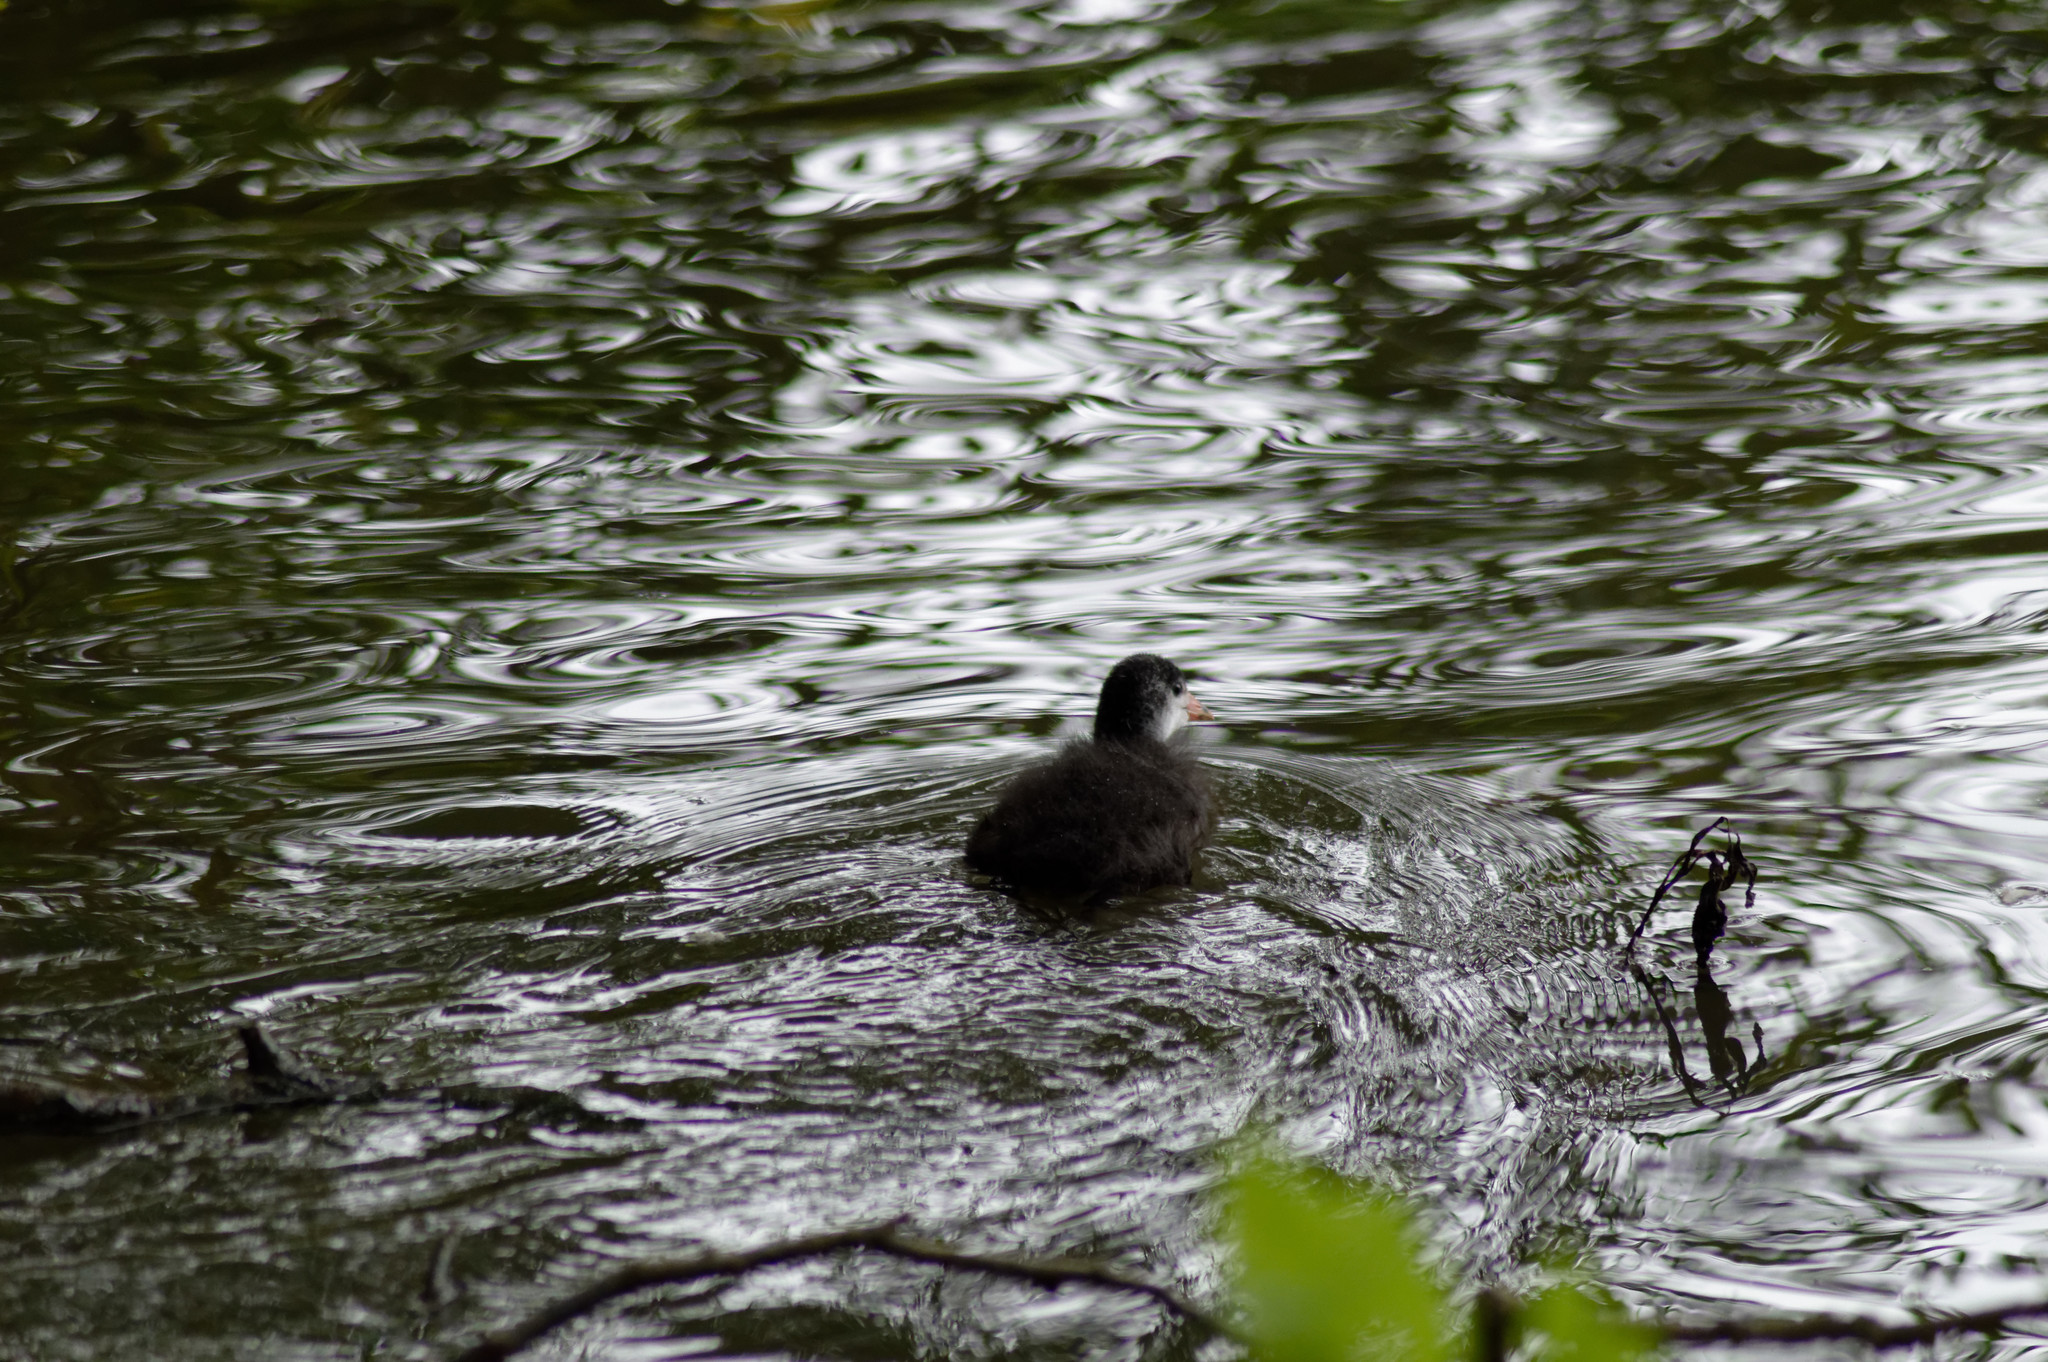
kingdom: Animalia
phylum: Chordata
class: Aves
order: Gruiformes
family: Rallidae
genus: Fulica
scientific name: Fulica atra
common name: Eurasian coot
